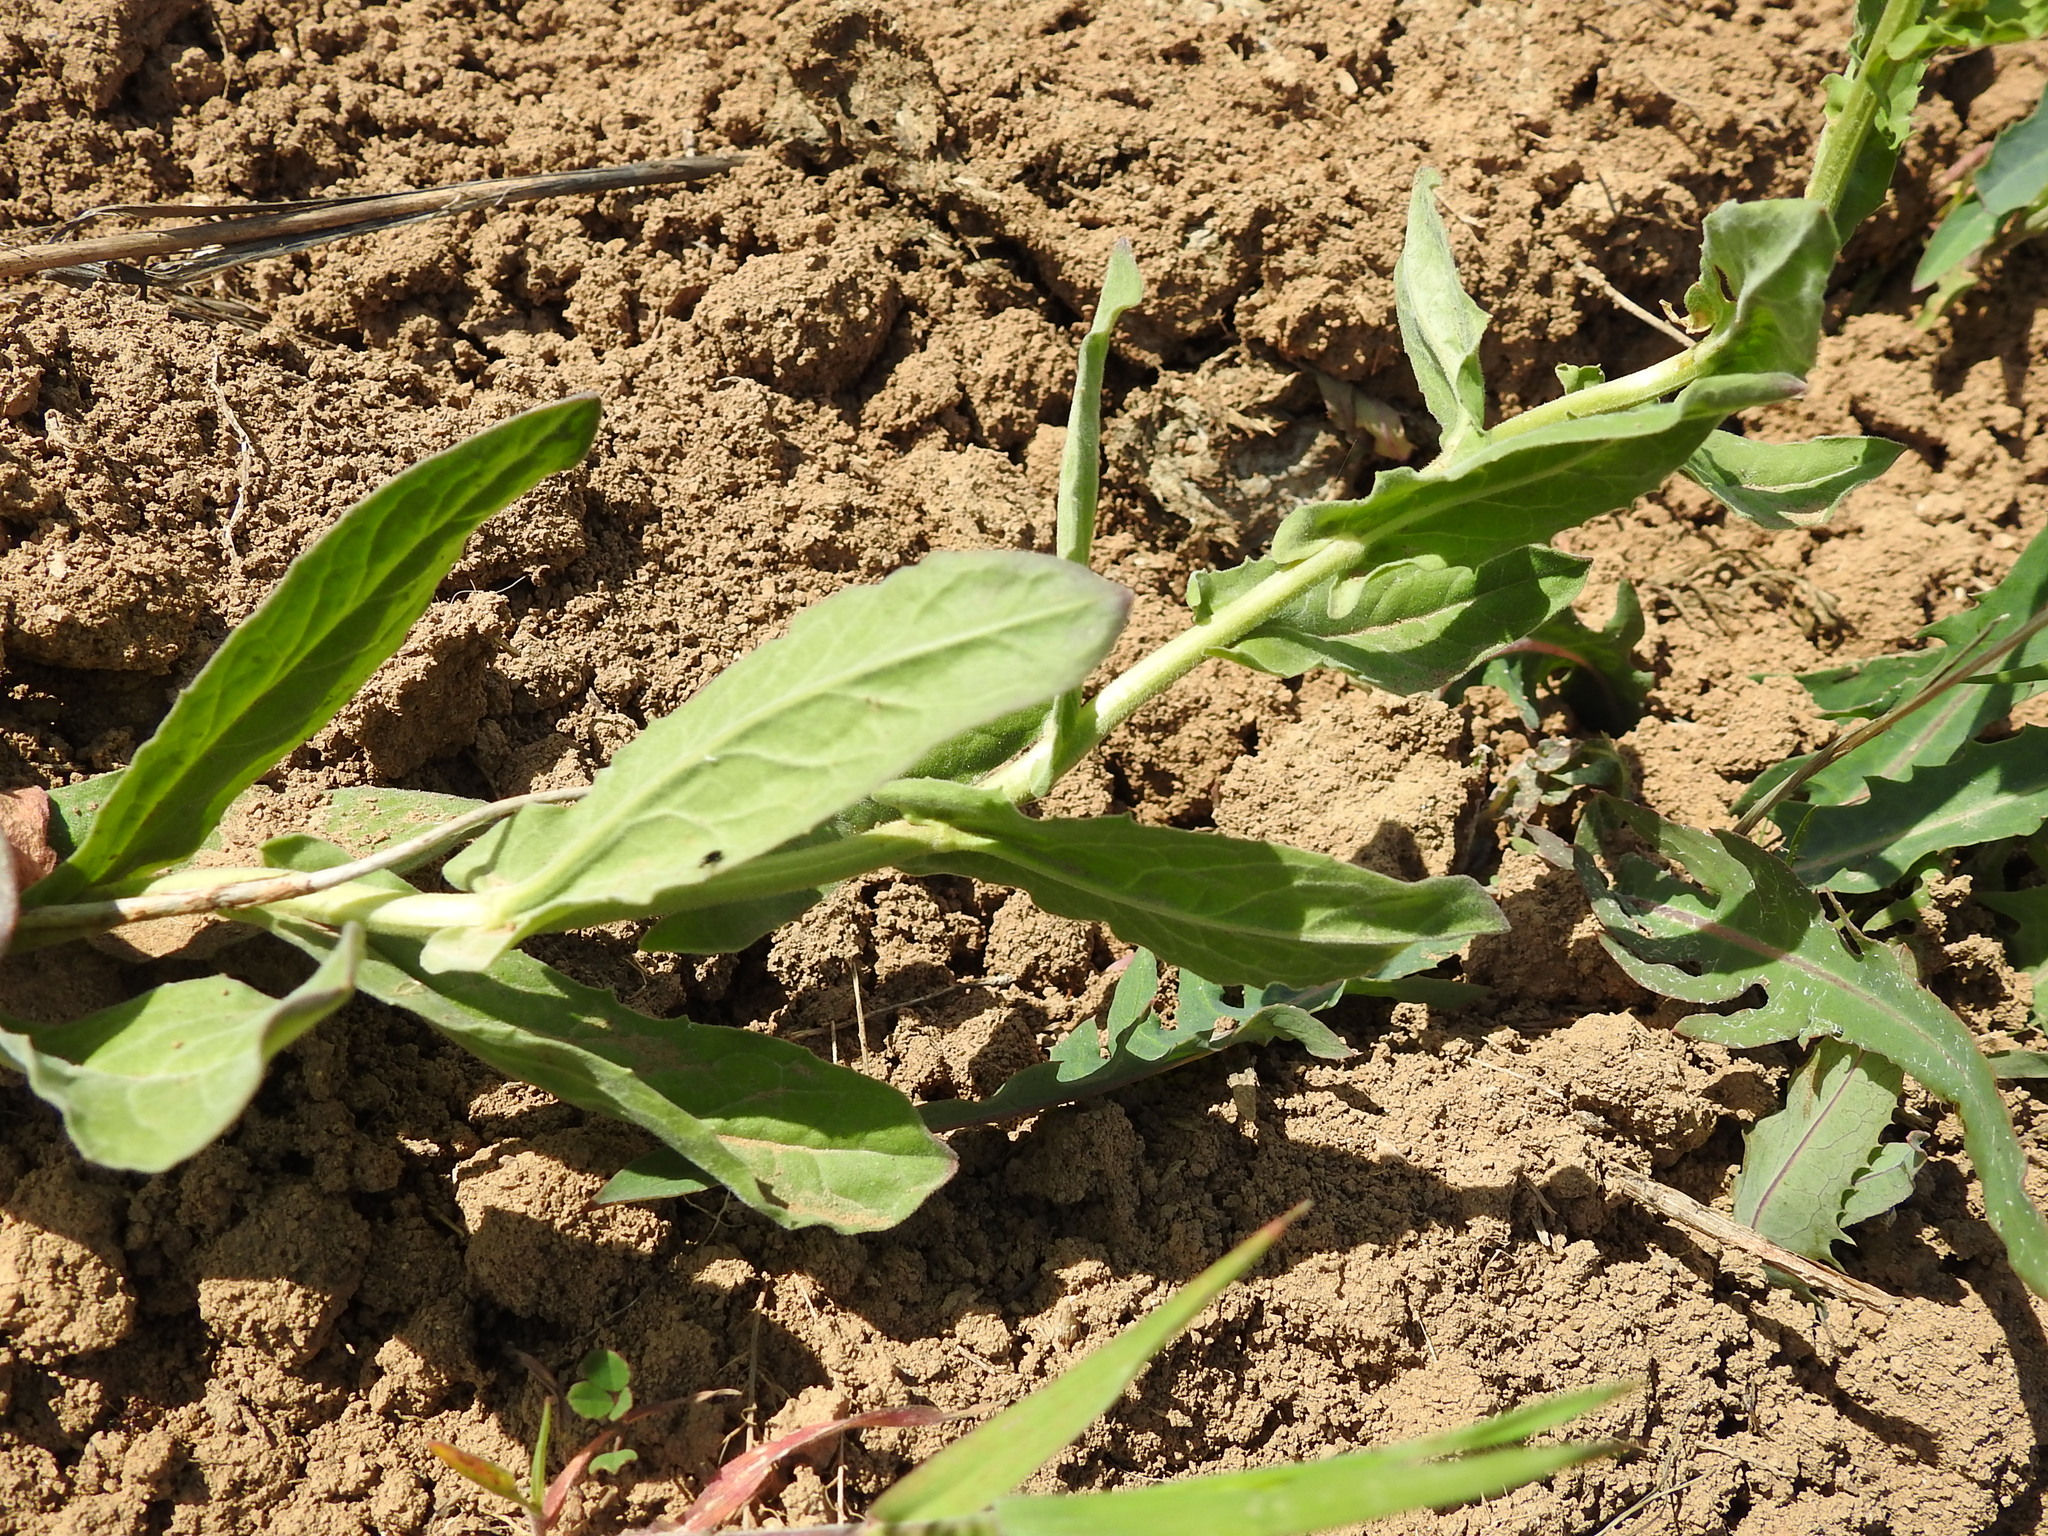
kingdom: Plantae
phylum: Tracheophyta
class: Magnoliopsida
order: Brassicales
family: Brassicaceae
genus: Lepidium
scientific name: Lepidium draba
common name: Hoary cress
